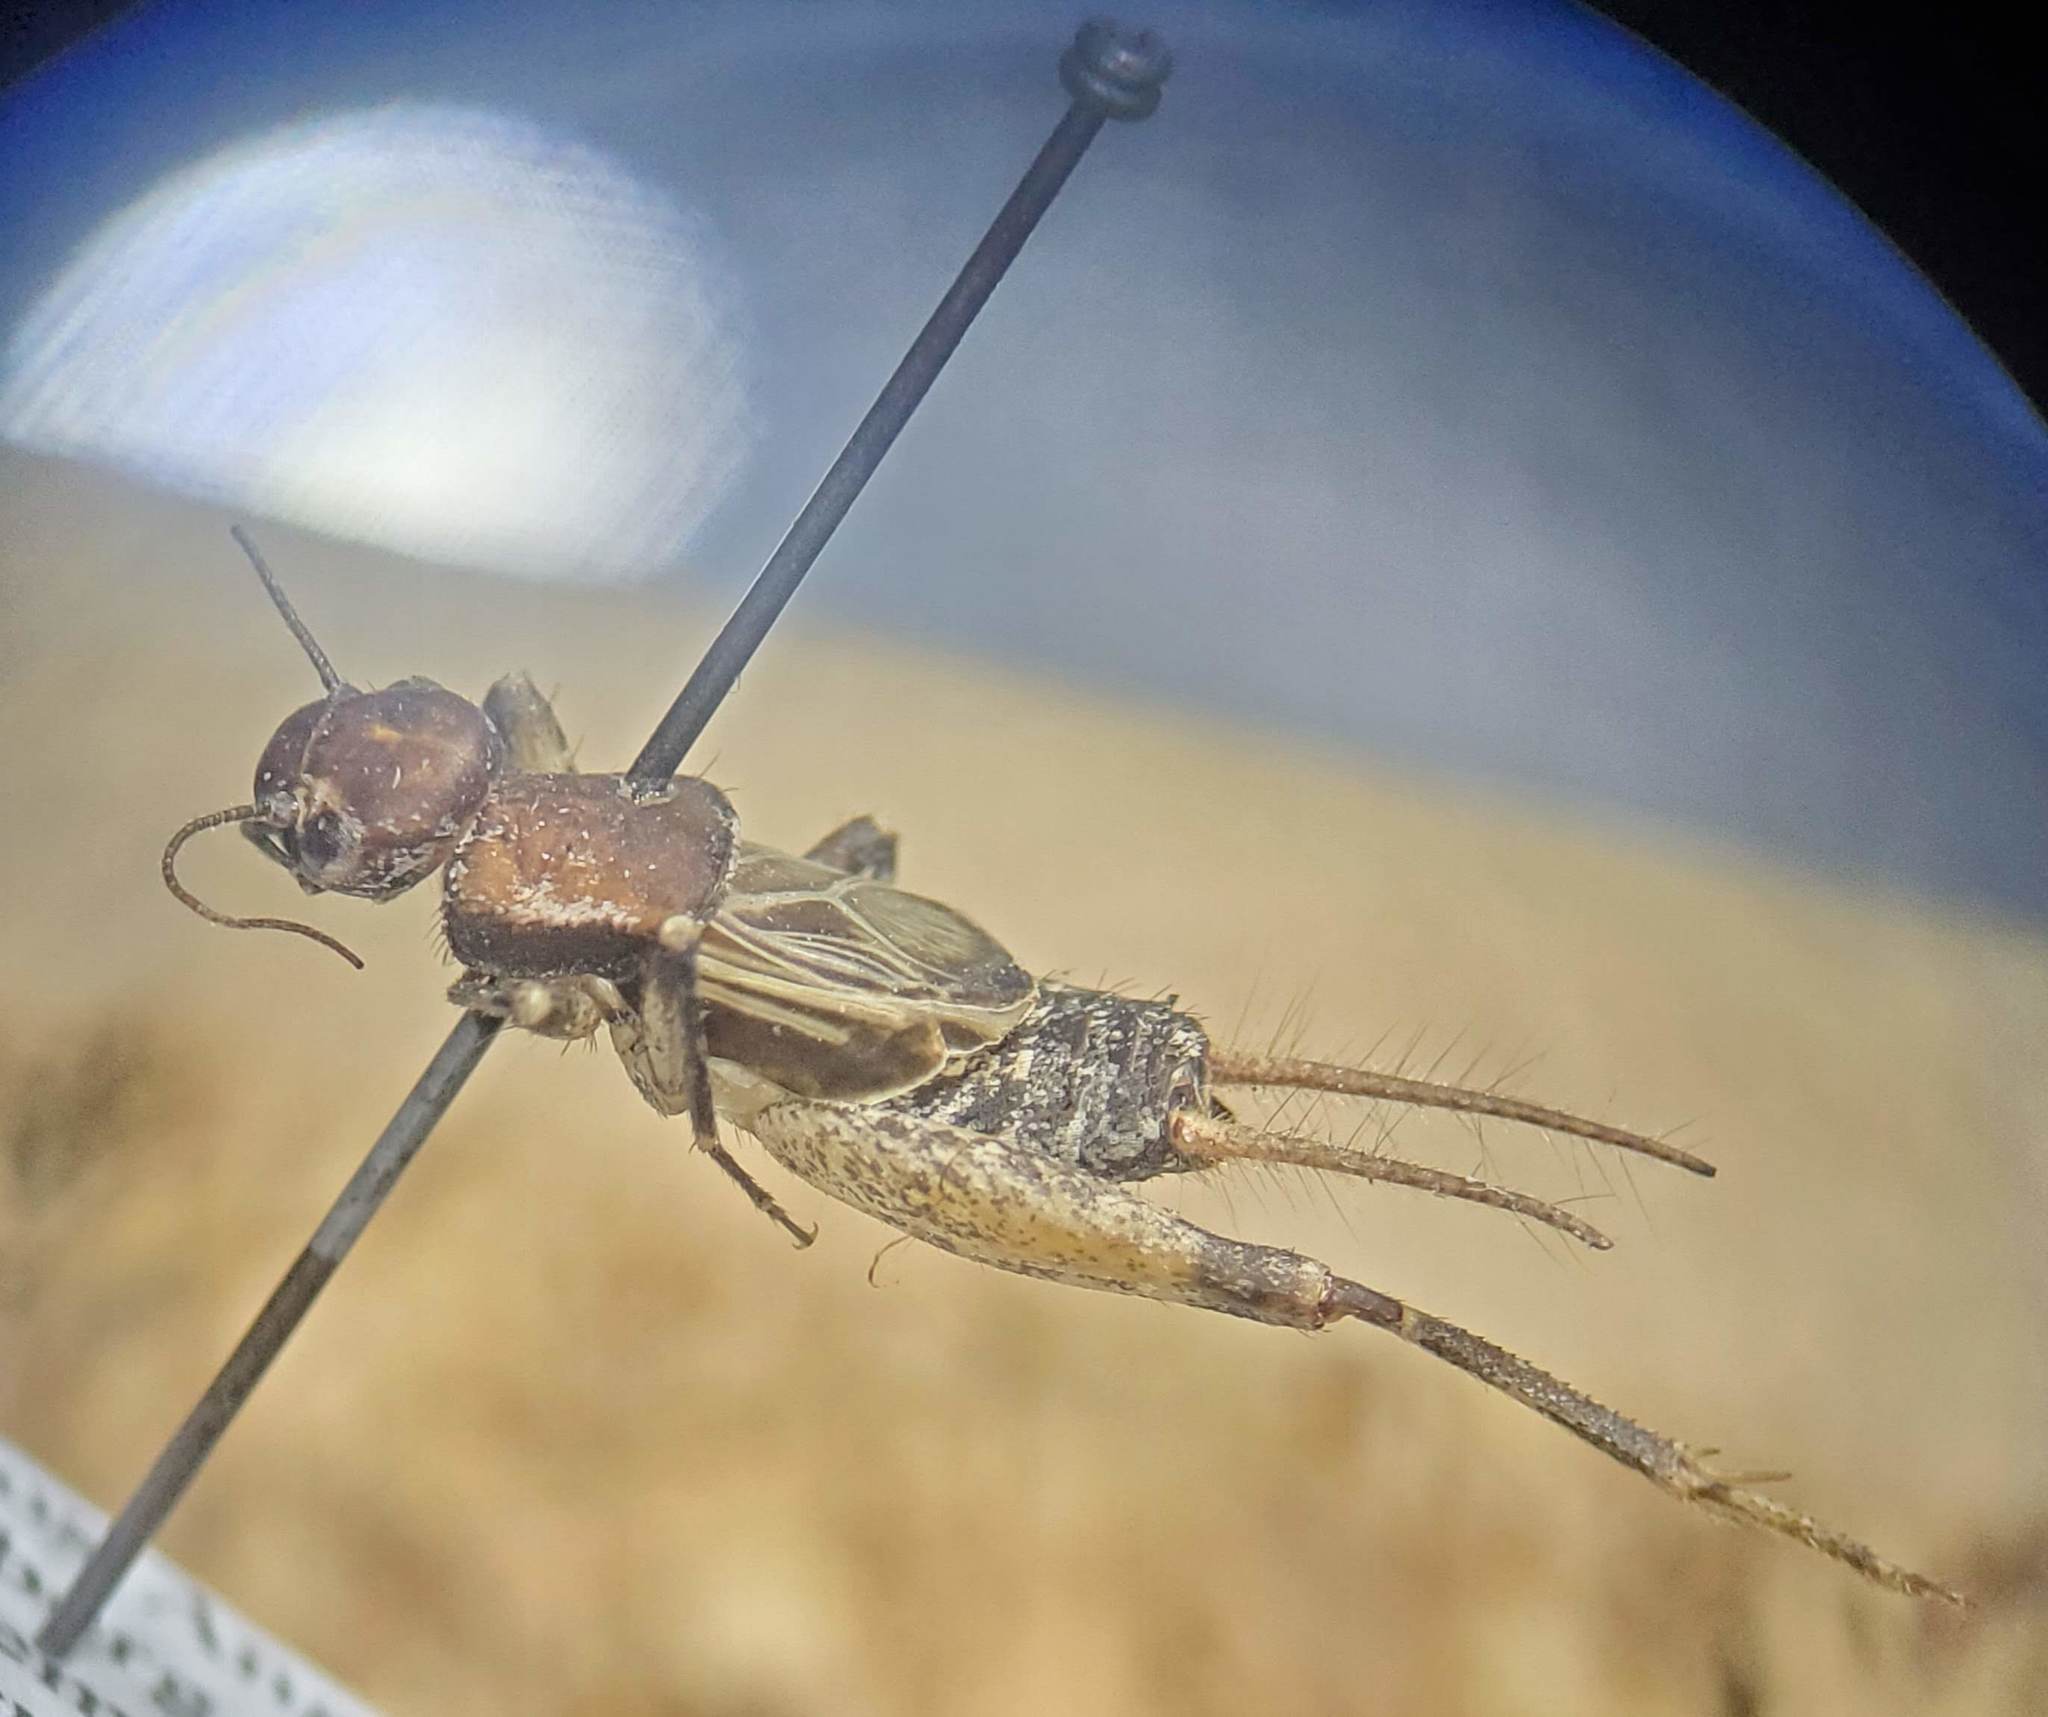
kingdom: Animalia
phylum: Arthropoda
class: Insecta
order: Orthoptera
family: Mogoplistidae
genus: Hoplosphyrum
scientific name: Hoplosphyrum boreale
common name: Long-winged scaly cricket
